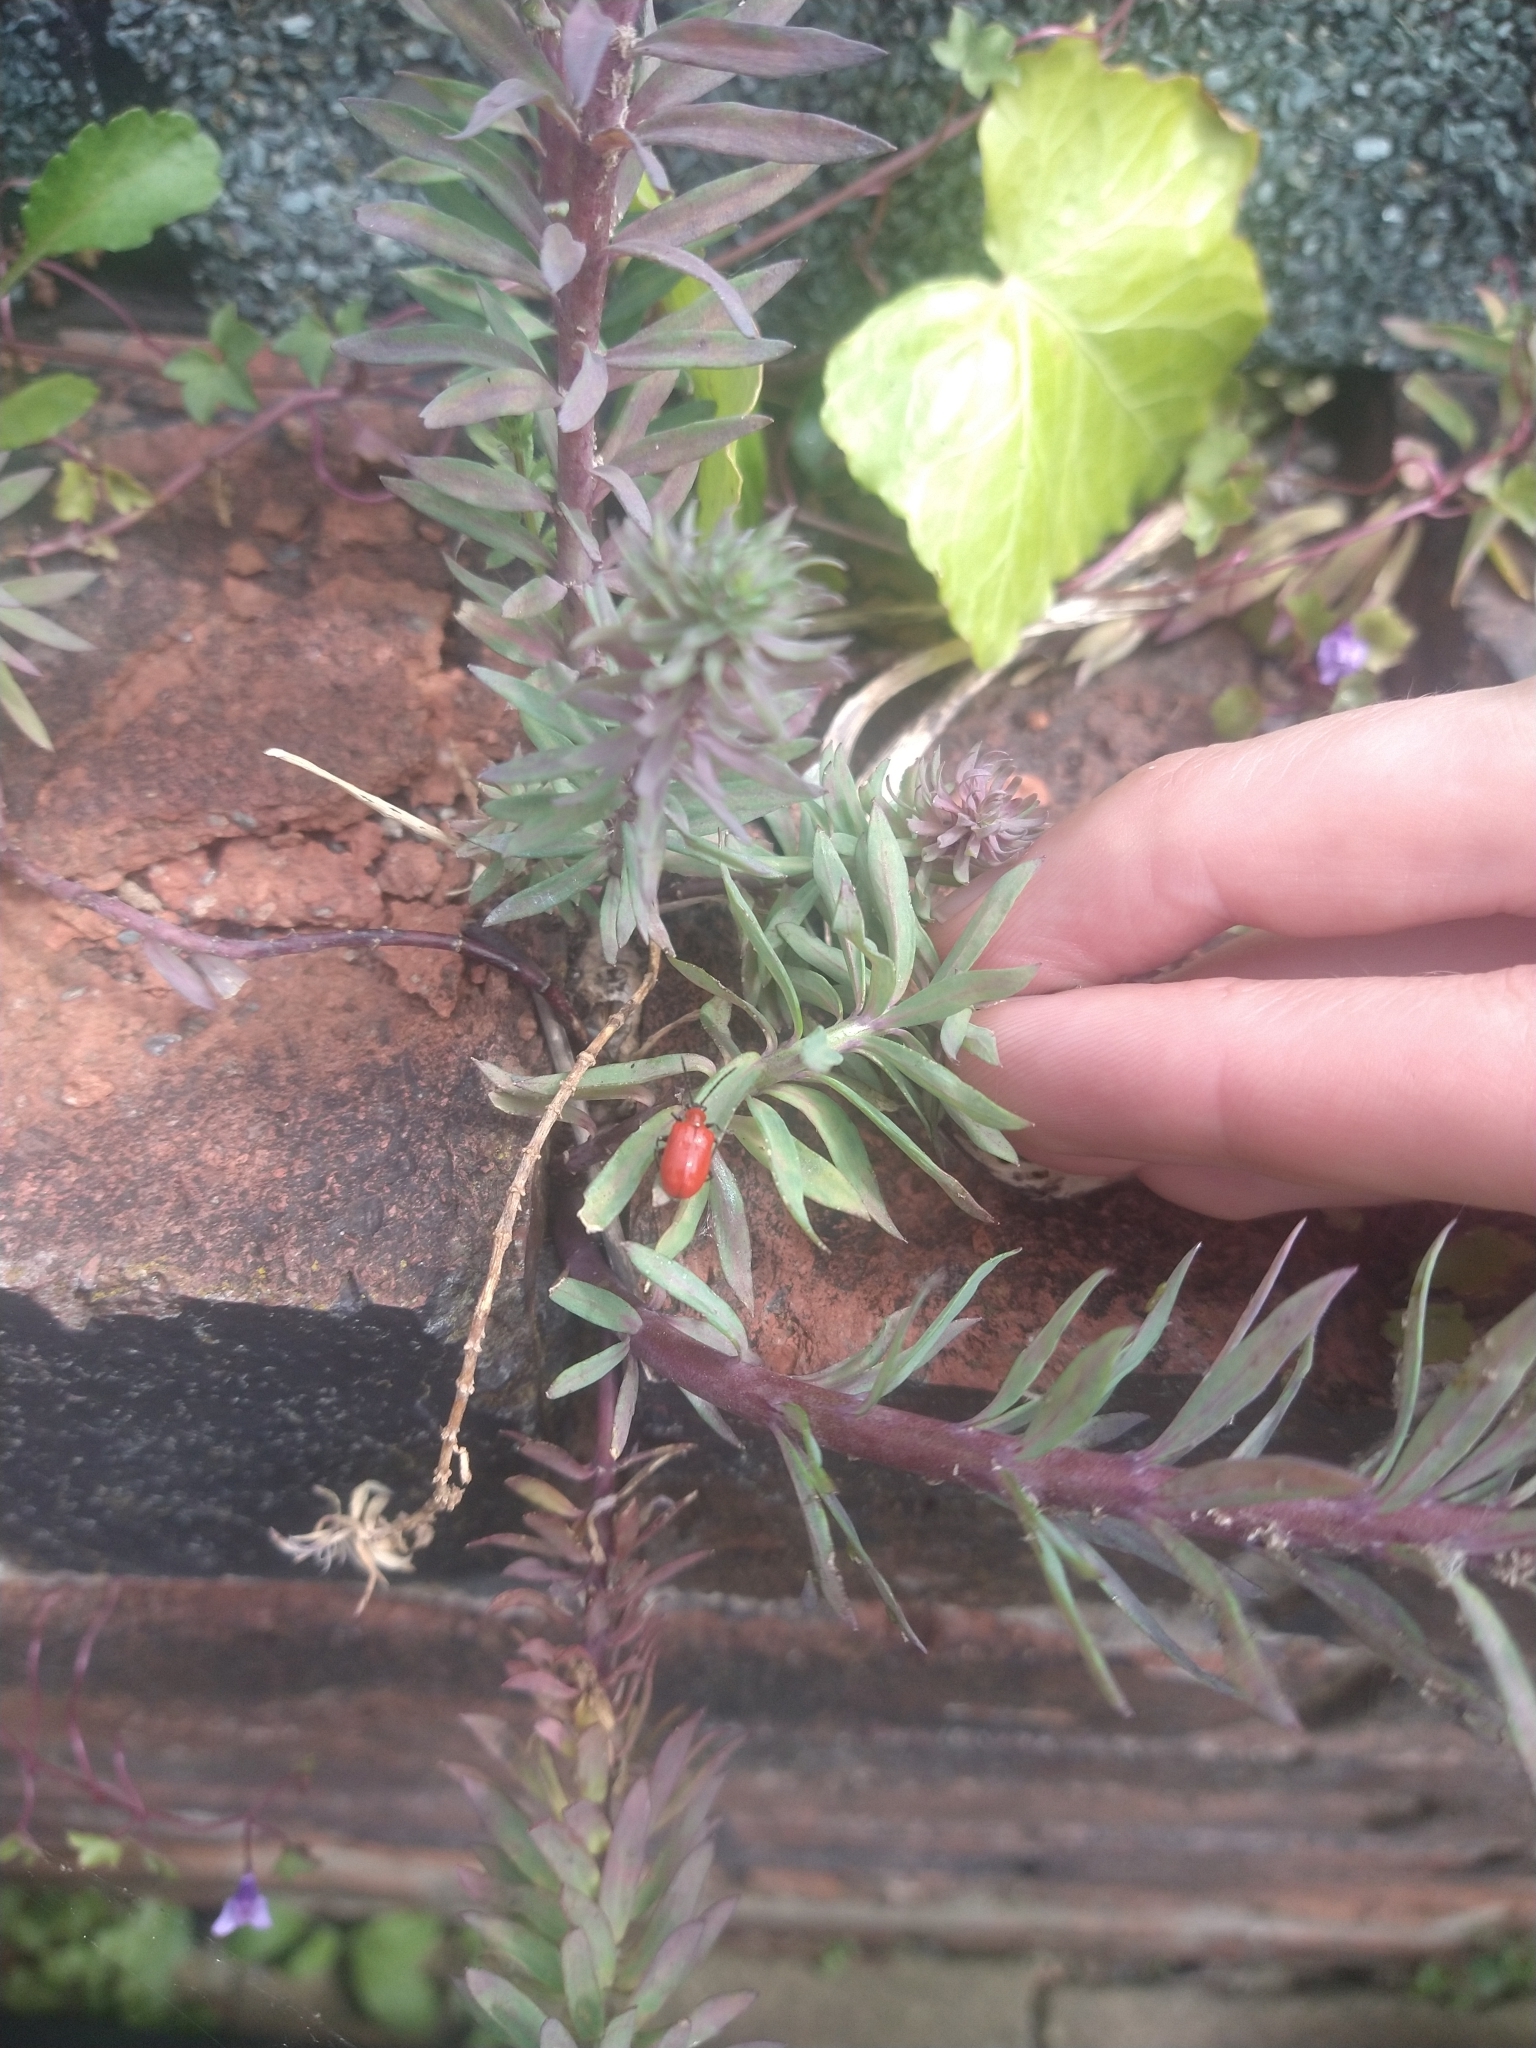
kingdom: Animalia
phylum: Arthropoda
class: Insecta
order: Coleoptera
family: Chrysomelidae
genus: Lilioceris
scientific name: Lilioceris lilii
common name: Lily beetle
